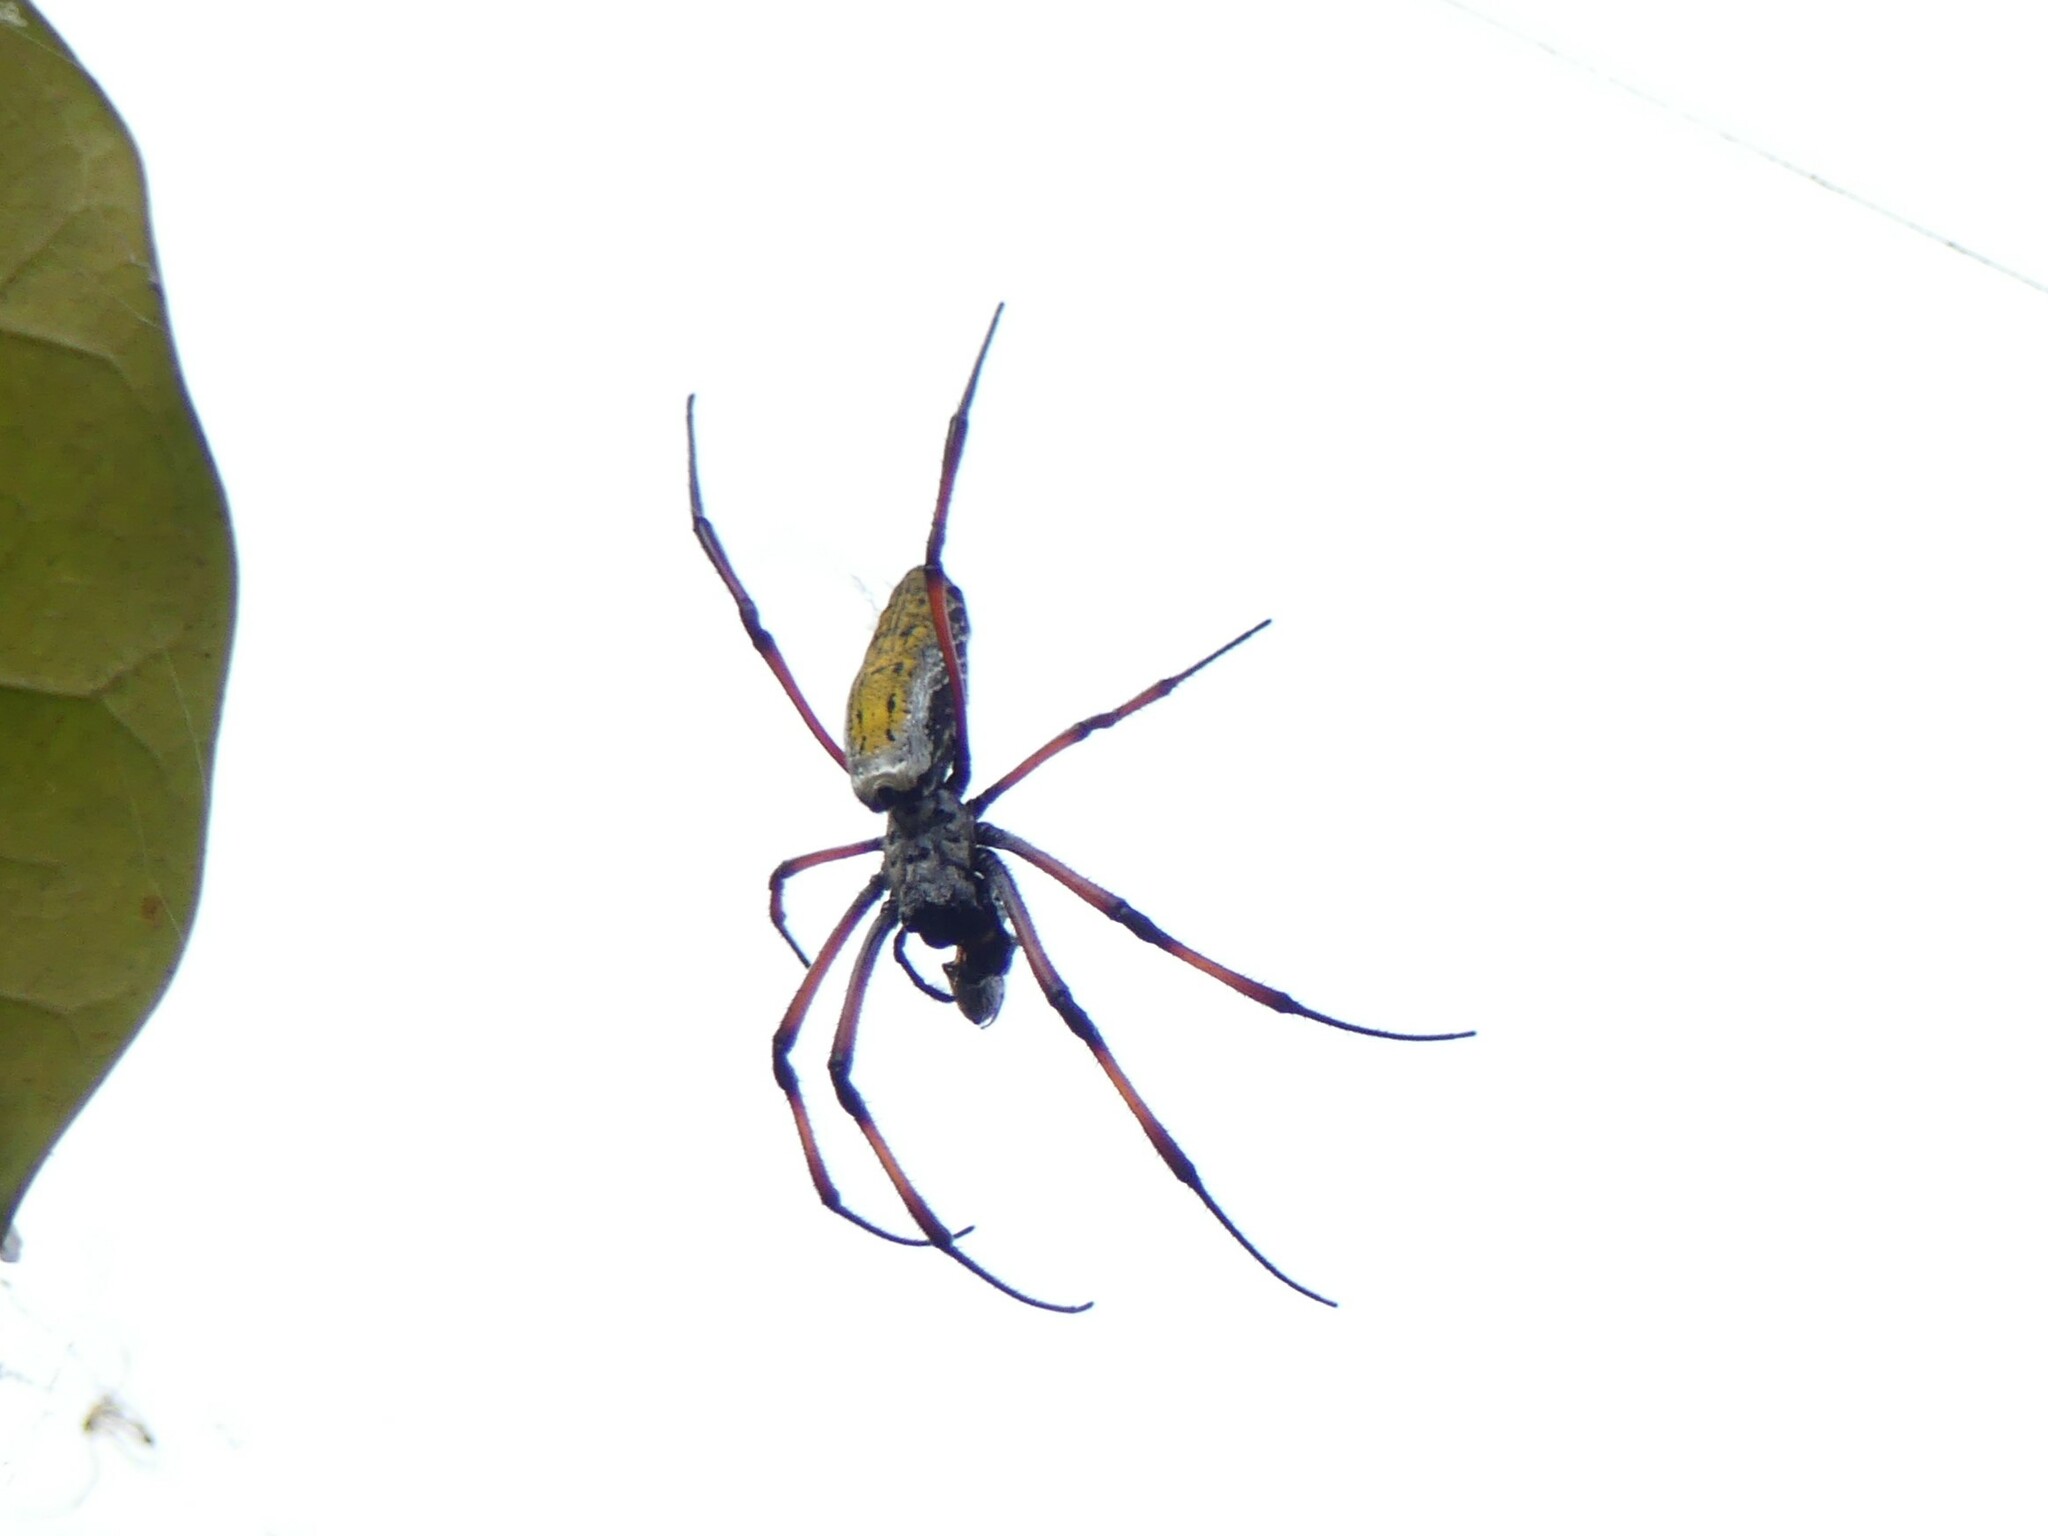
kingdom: Animalia
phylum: Arthropoda
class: Arachnida
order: Araneae
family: Araneidae
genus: Trichonephila
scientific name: Trichonephila inaurata
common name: Red-legged golden orb weaver
